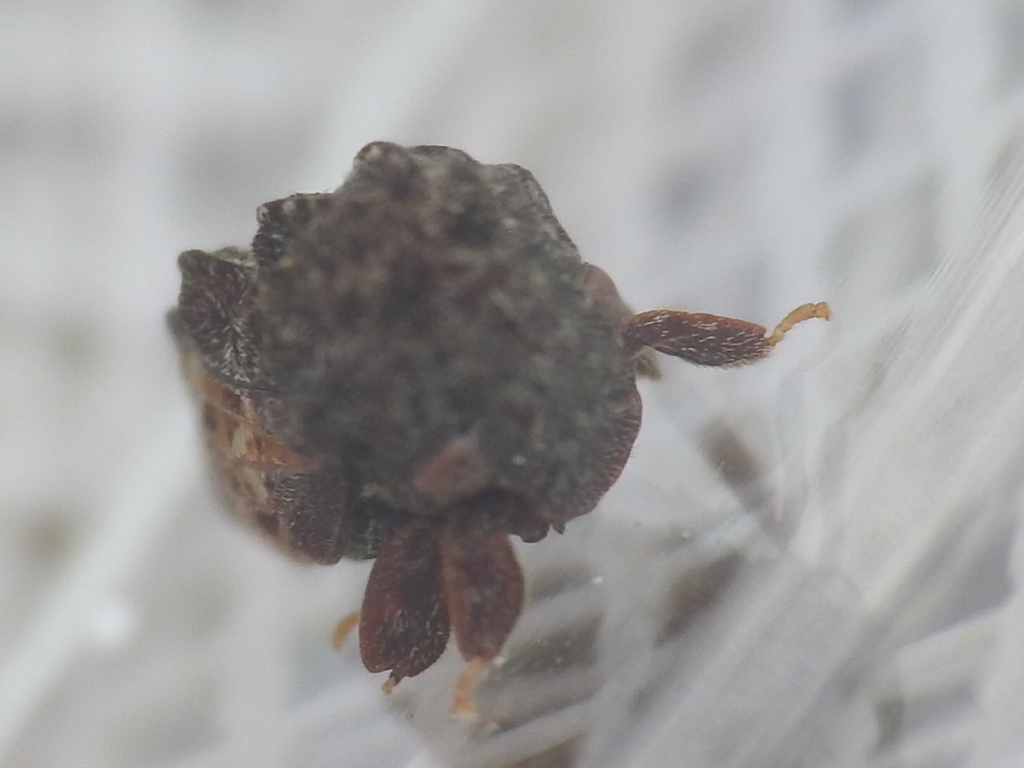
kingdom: Animalia
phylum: Arthropoda
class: Insecta
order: Hemiptera
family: Membracidae
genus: Tylopelta
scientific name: Tylopelta gibbera
